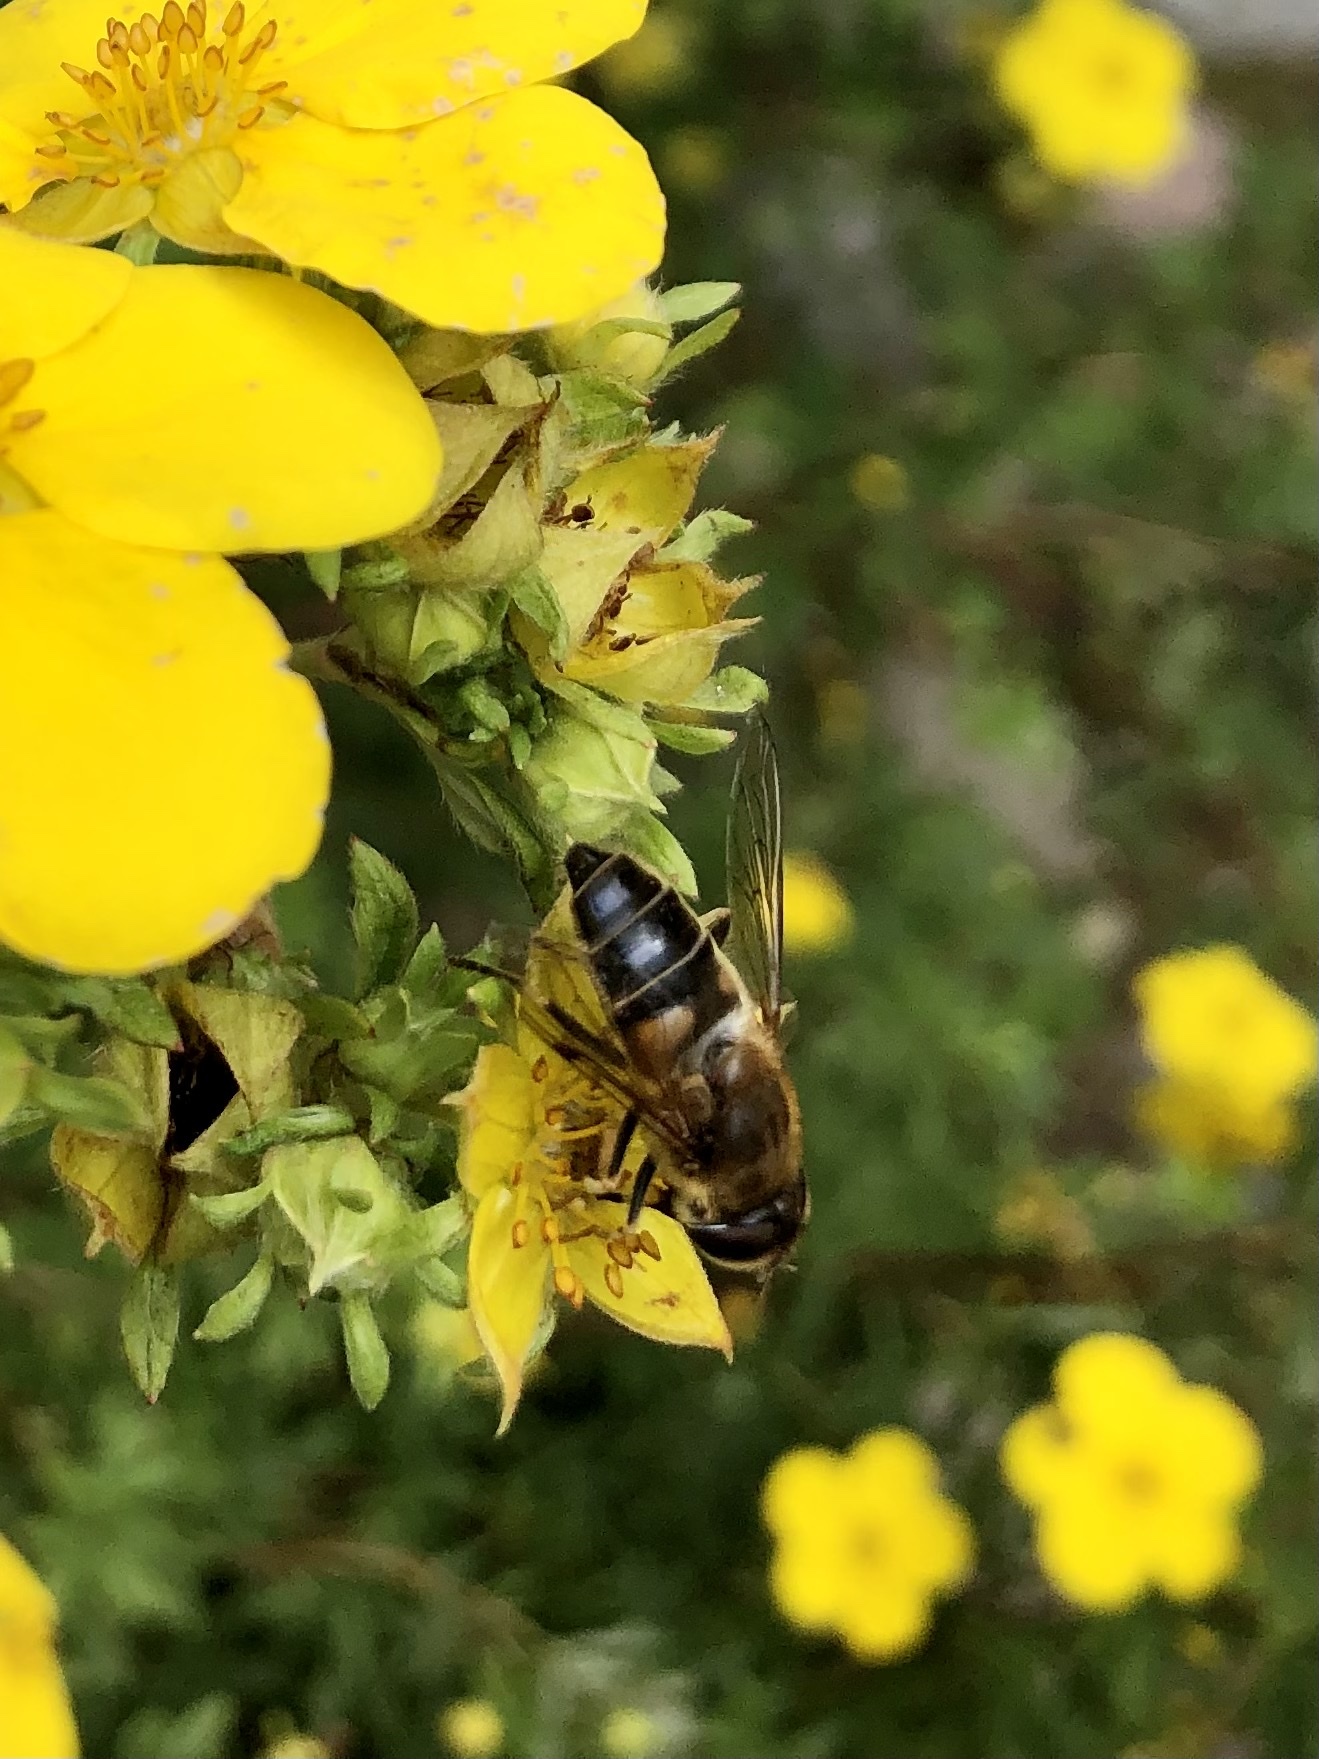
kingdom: Animalia
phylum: Arthropoda
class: Insecta
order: Diptera
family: Syrphidae
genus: Eristalis
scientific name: Eristalis pertinax
